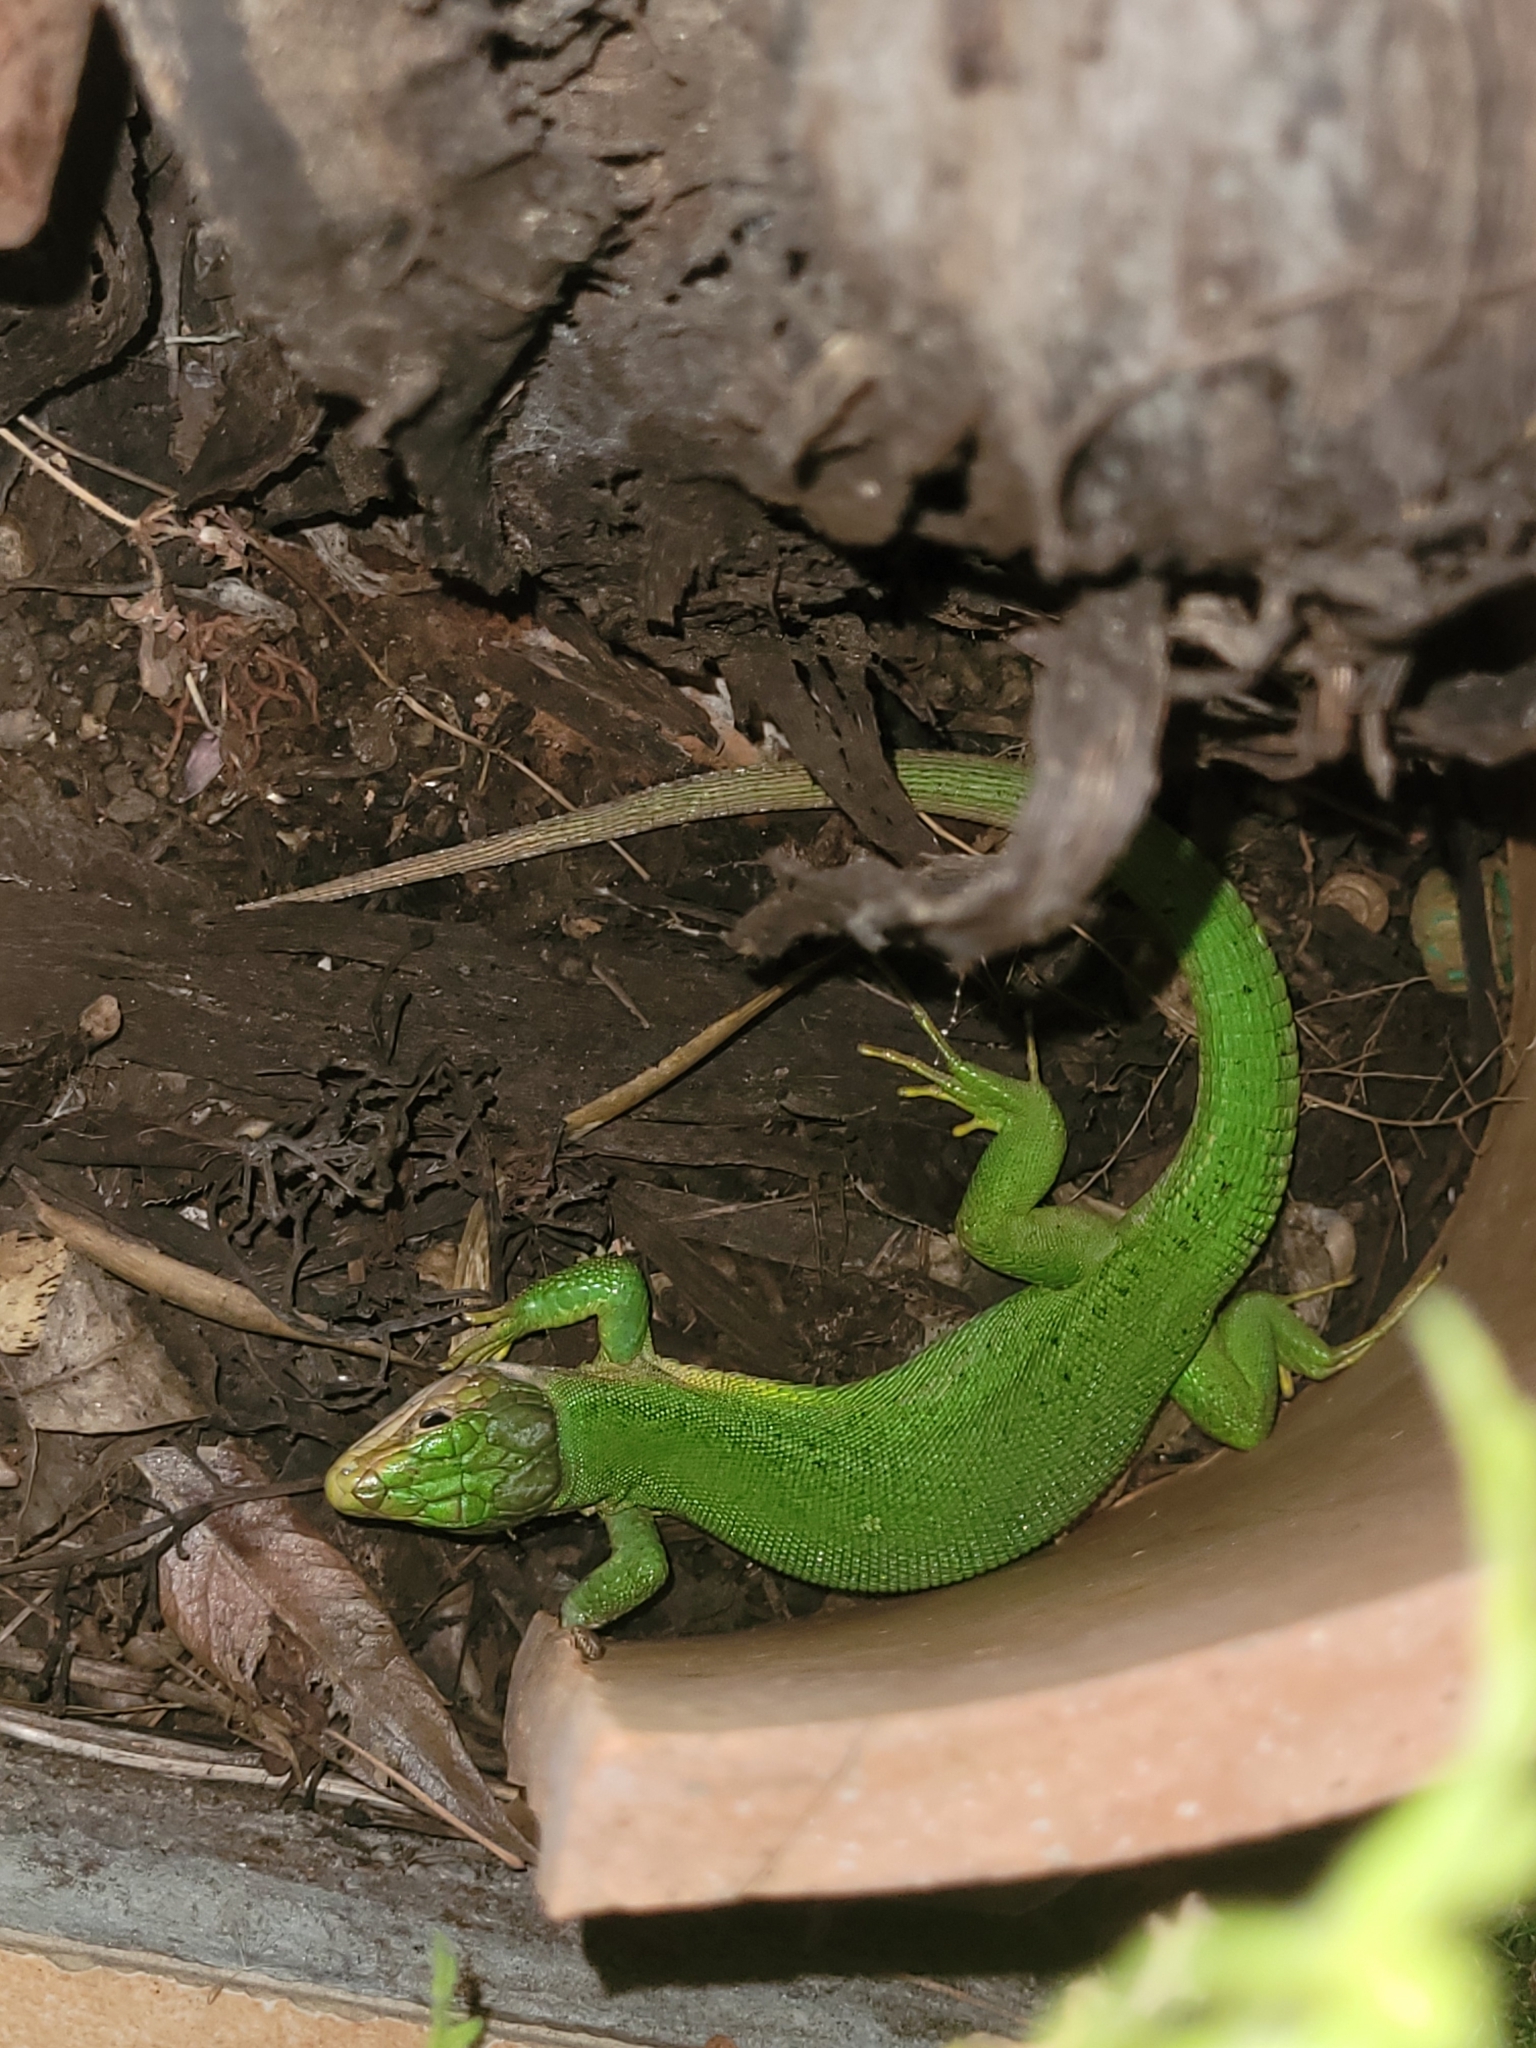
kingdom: Animalia
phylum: Chordata
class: Squamata
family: Lacertidae
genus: Lacerta
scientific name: Lacerta bilineata
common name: Western green lizard
